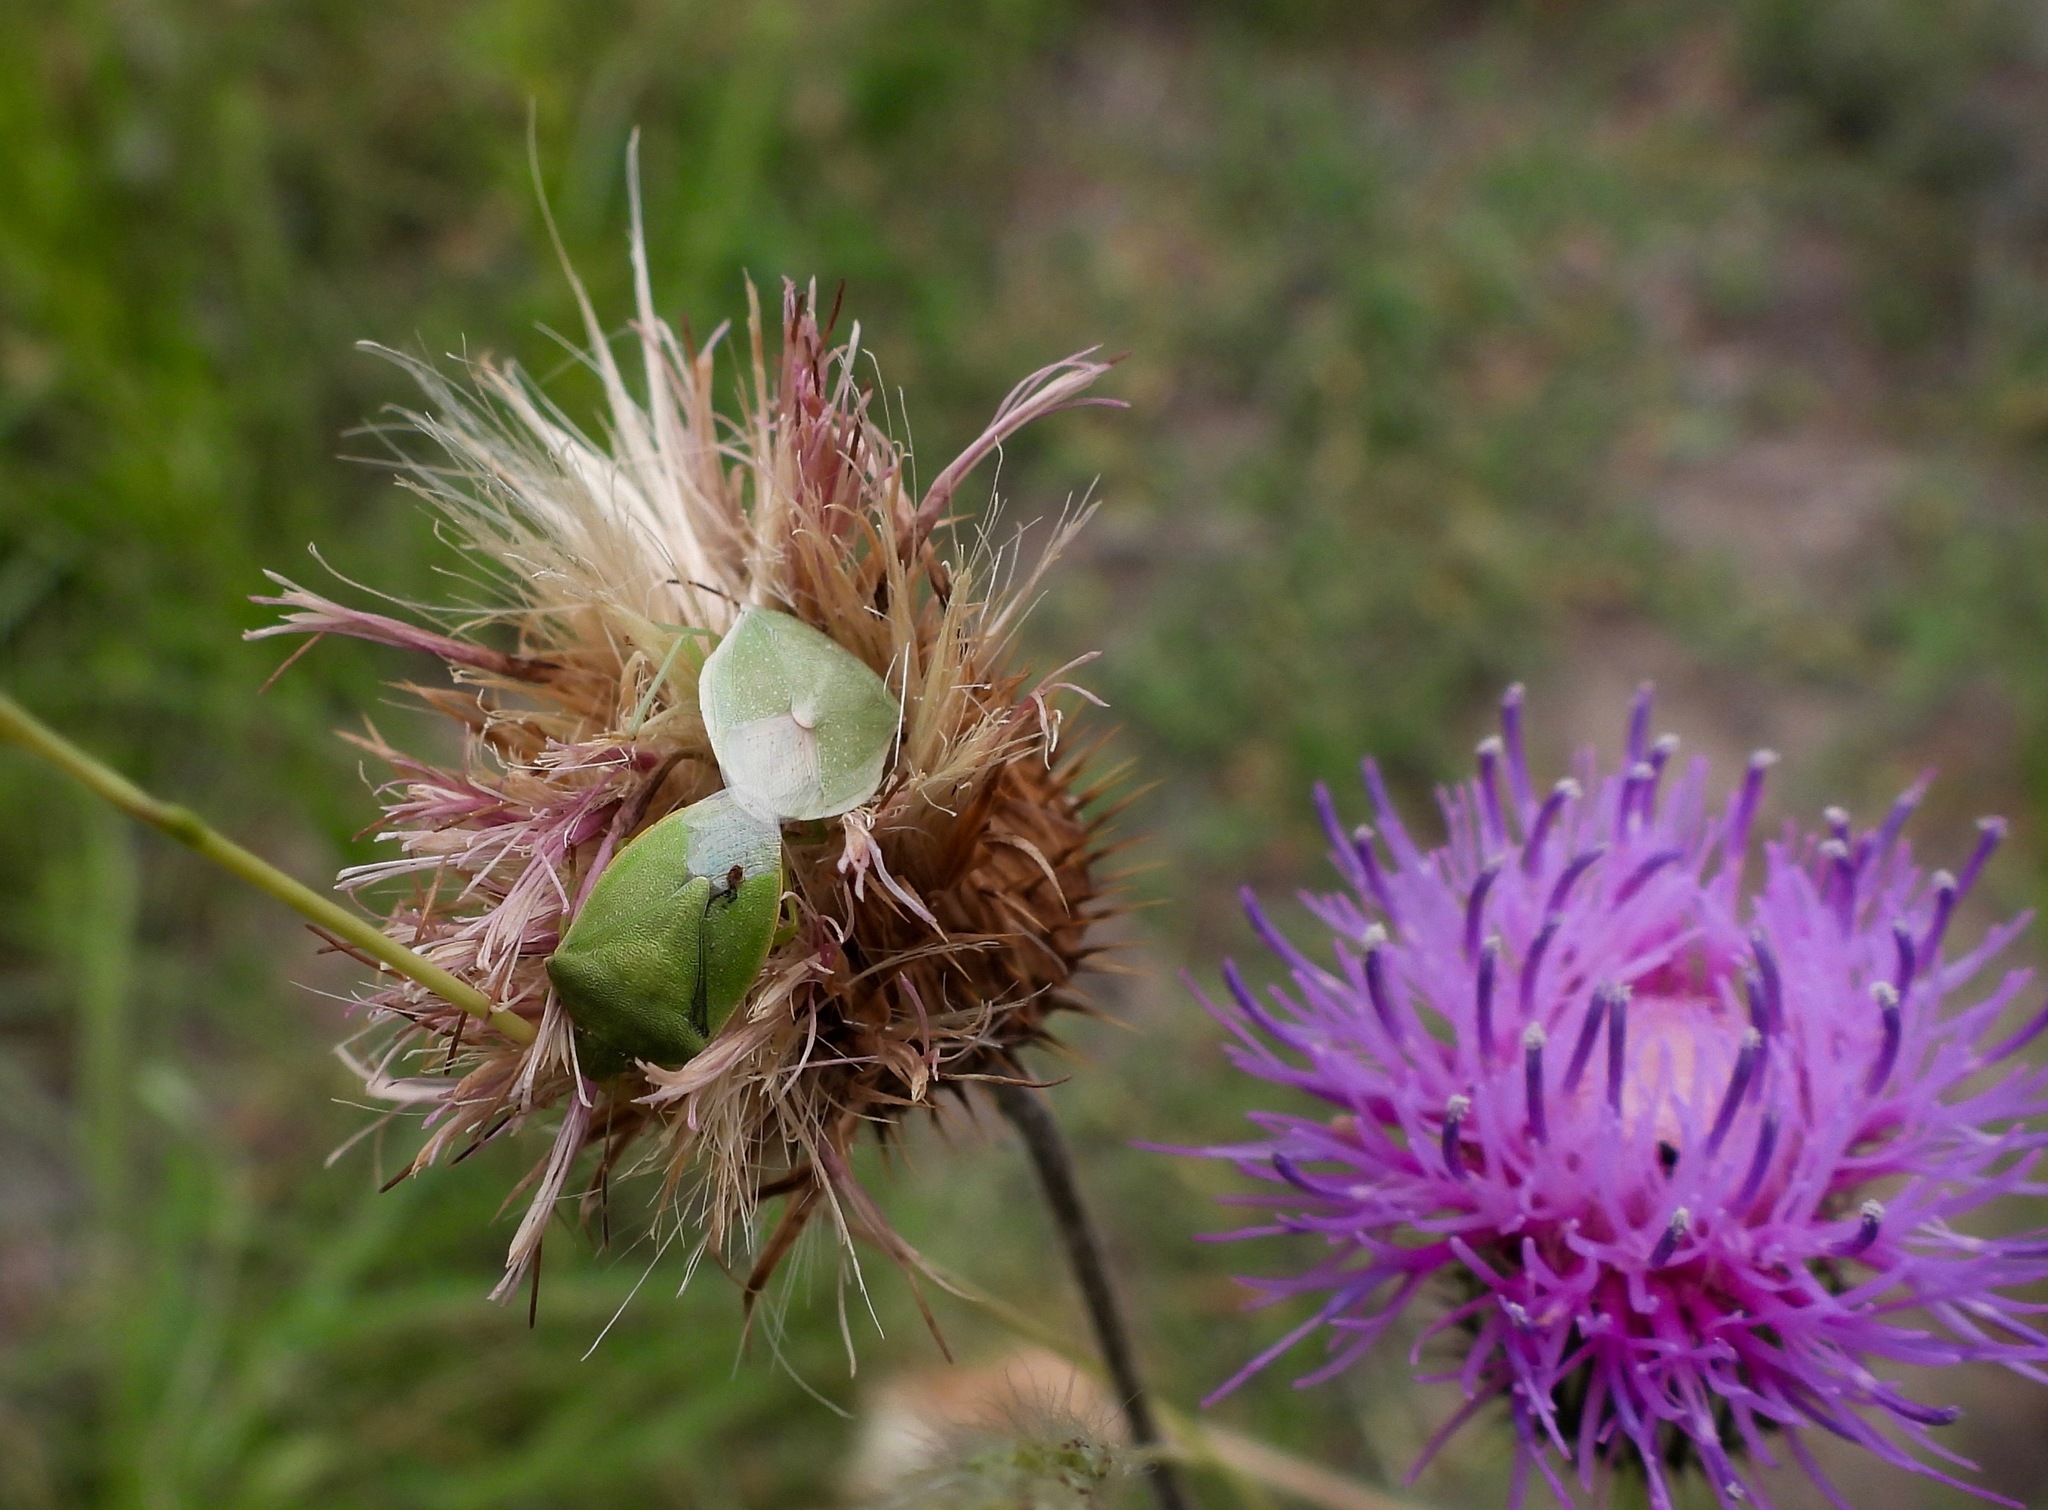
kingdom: Animalia
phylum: Arthropoda
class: Insecta
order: Hemiptera
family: Pentatomidae
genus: Thyanta
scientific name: Thyanta accerra
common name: Stink bug
